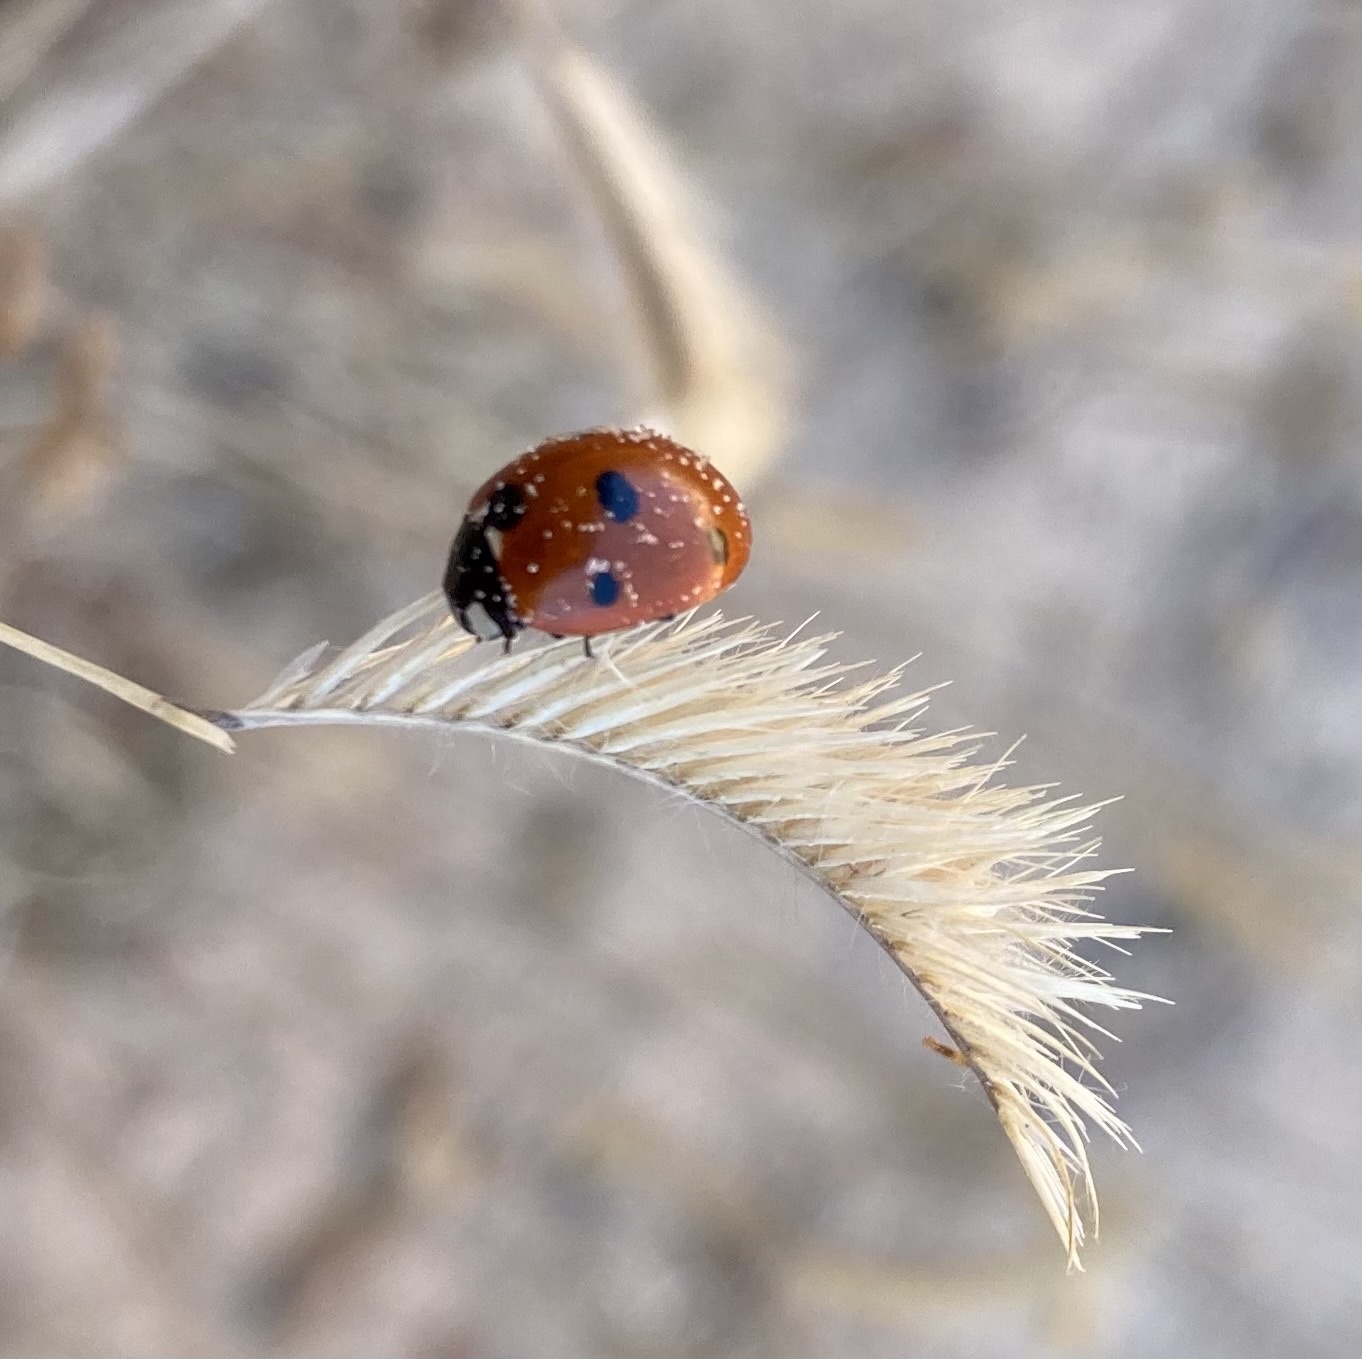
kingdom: Animalia
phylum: Arthropoda
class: Insecta
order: Coleoptera
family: Coccinellidae
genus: Coccinella
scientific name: Coccinella septempunctata
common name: Sevenspotted lady beetle
